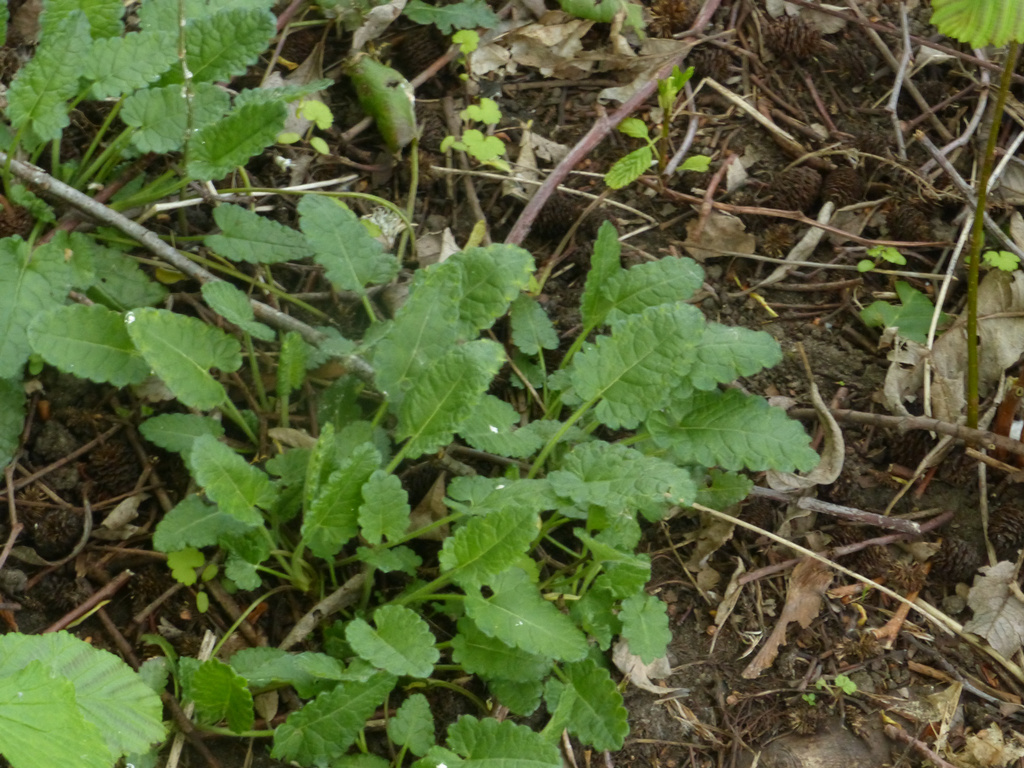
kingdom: Plantae
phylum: Tracheophyta
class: Magnoliopsida
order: Lamiales
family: Lamiaceae
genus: Betonica
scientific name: Betonica officinalis
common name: Bishop's-wort
